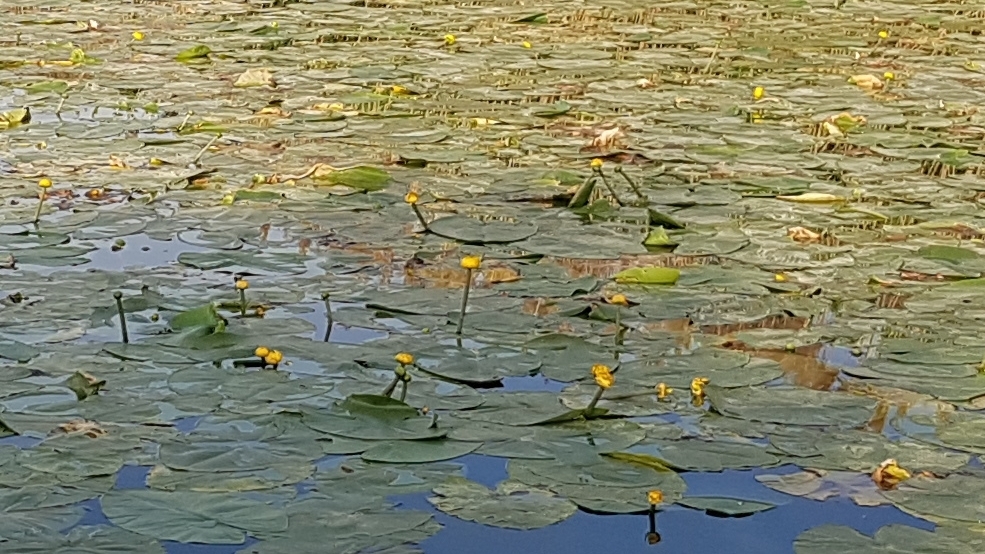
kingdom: Plantae
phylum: Tracheophyta
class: Magnoliopsida
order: Nymphaeales
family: Nymphaeaceae
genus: Nuphar
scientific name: Nuphar lutea
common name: Yellow water-lily
